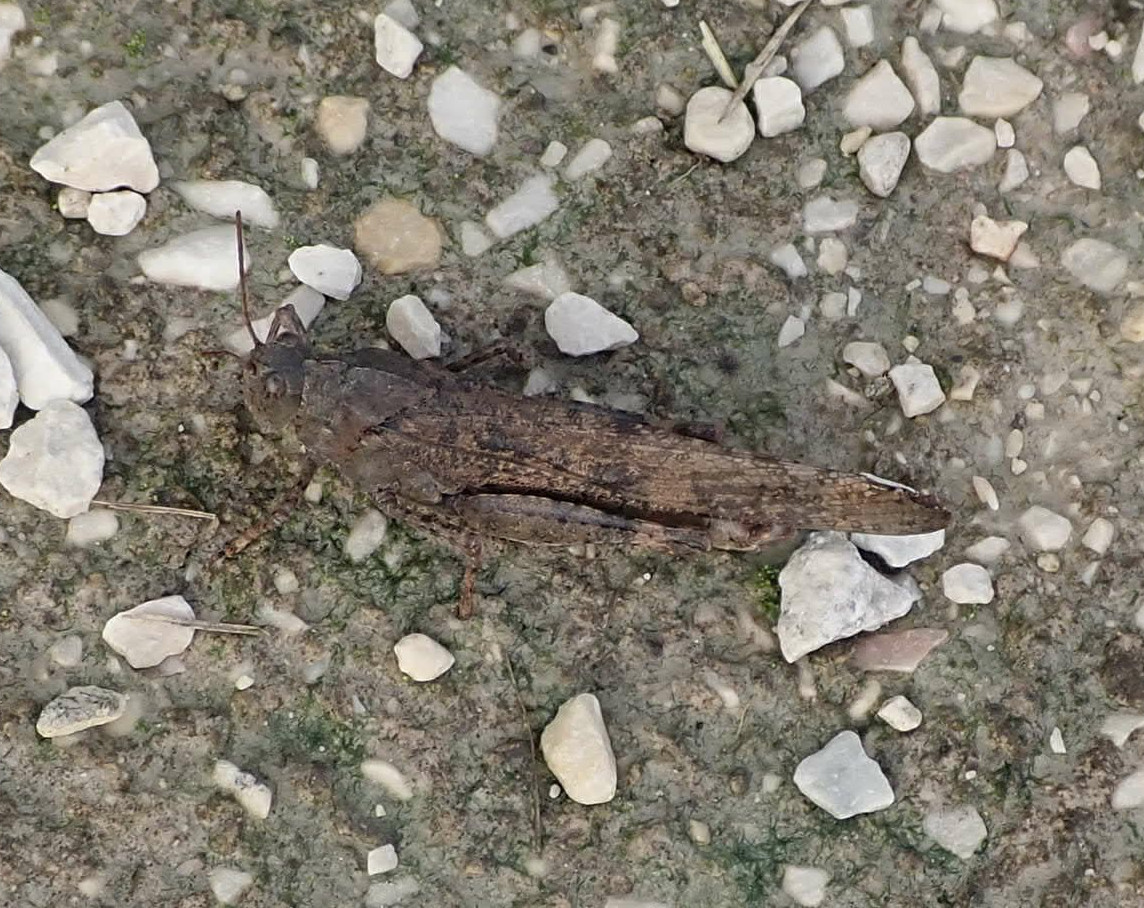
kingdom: Animalia
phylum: Arthropoda
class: Insecta
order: Orthoptera
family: Acrididae
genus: Dissosteira
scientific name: Dissosteira carolina
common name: Carolina grasshopper
